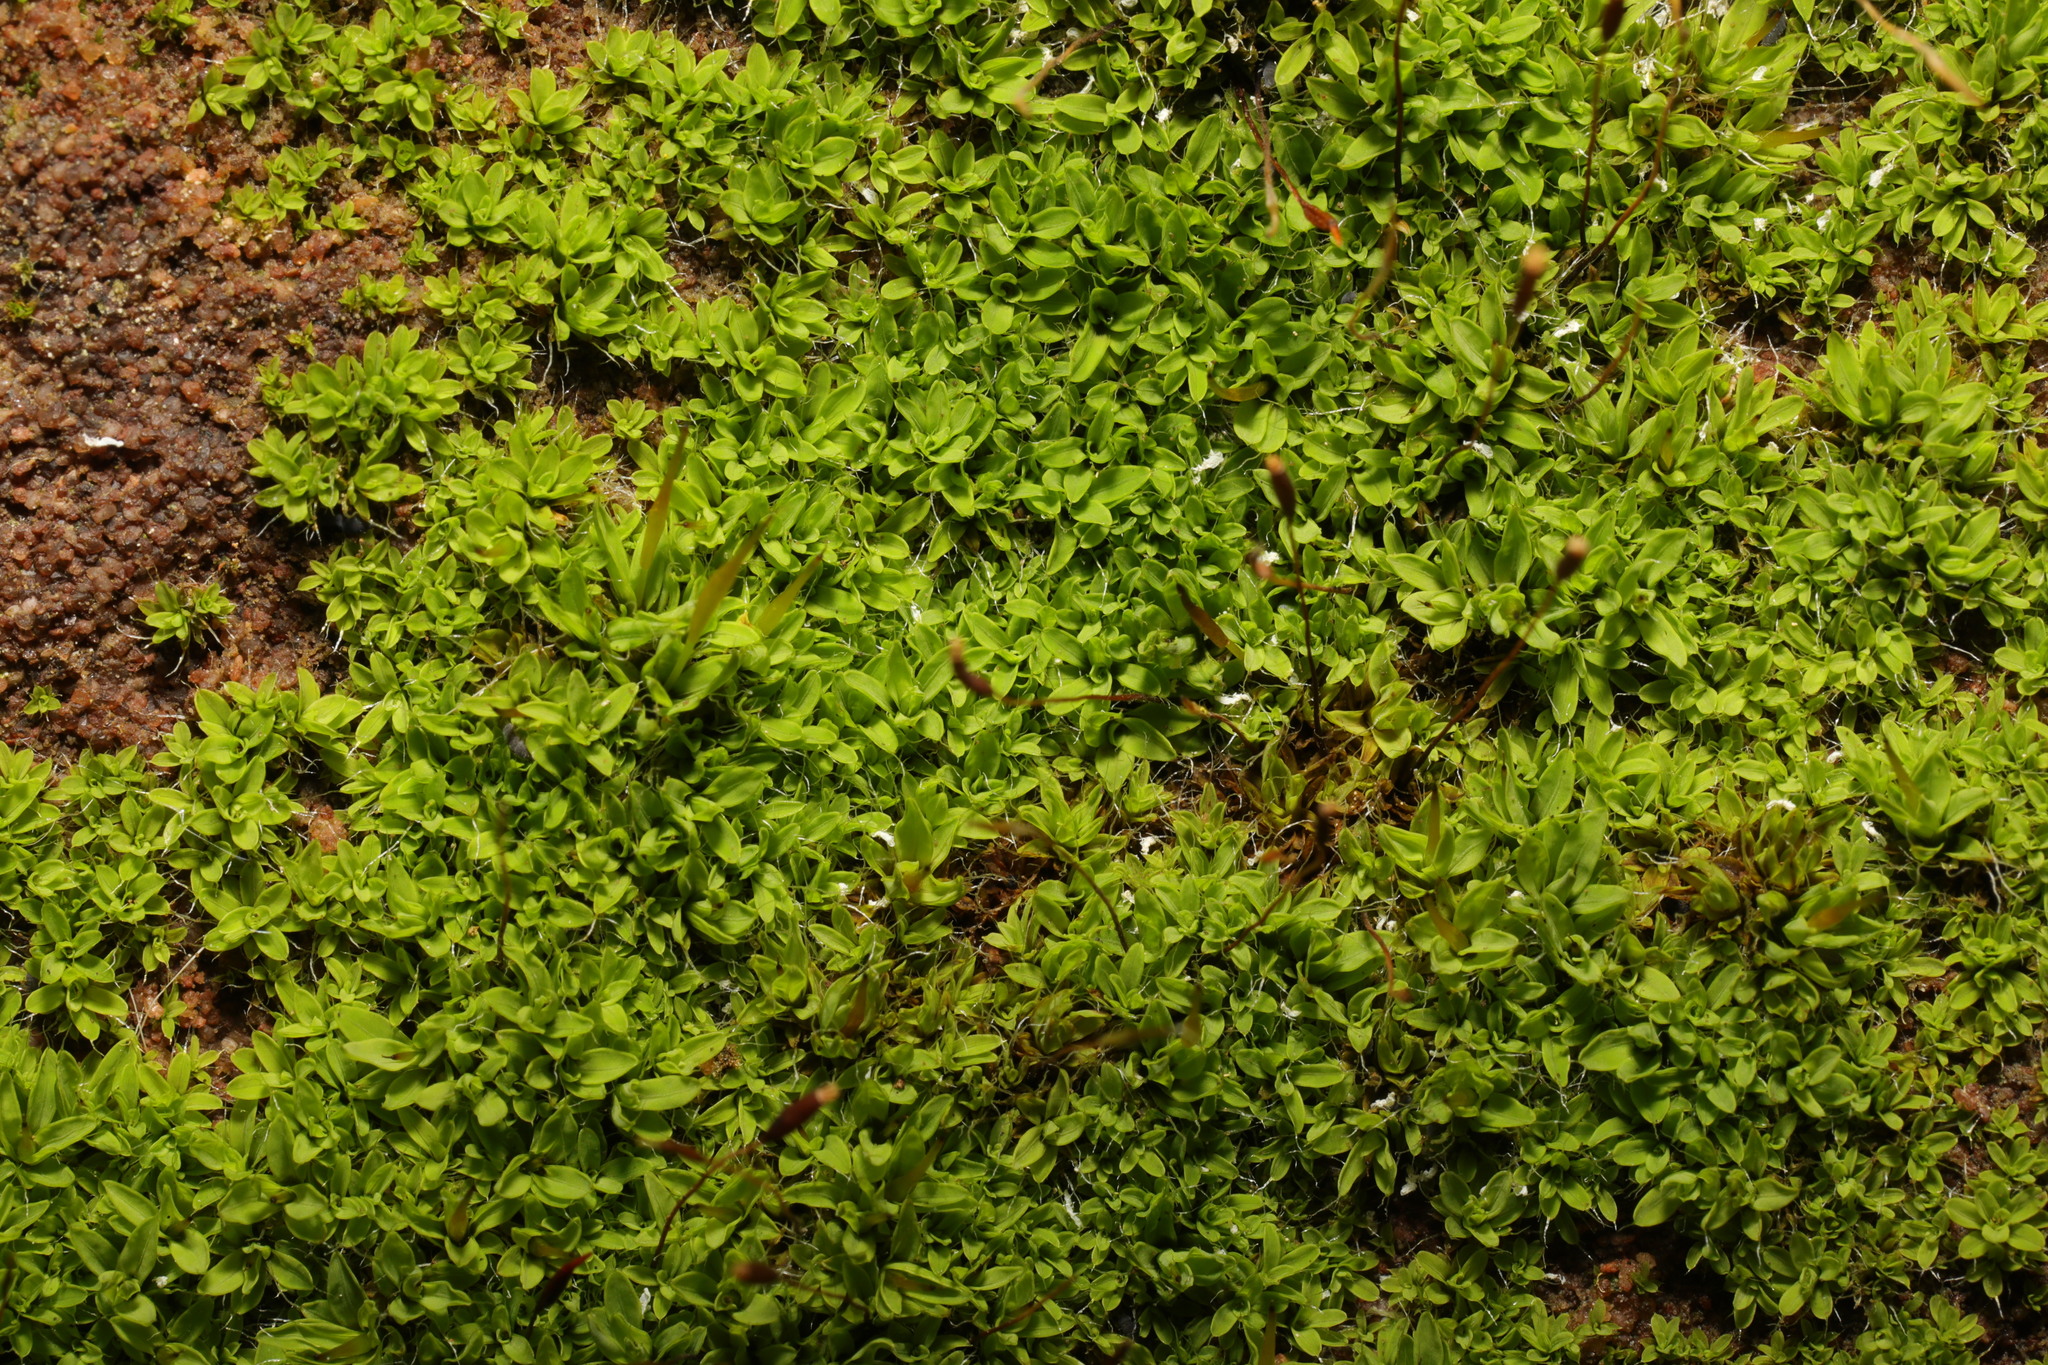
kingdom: Plantae
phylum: Bryophyta
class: Bryopsida
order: Pottiales
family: Pottiaceae
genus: Tortula
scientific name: Tortula muralis
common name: Wall screw-moss
